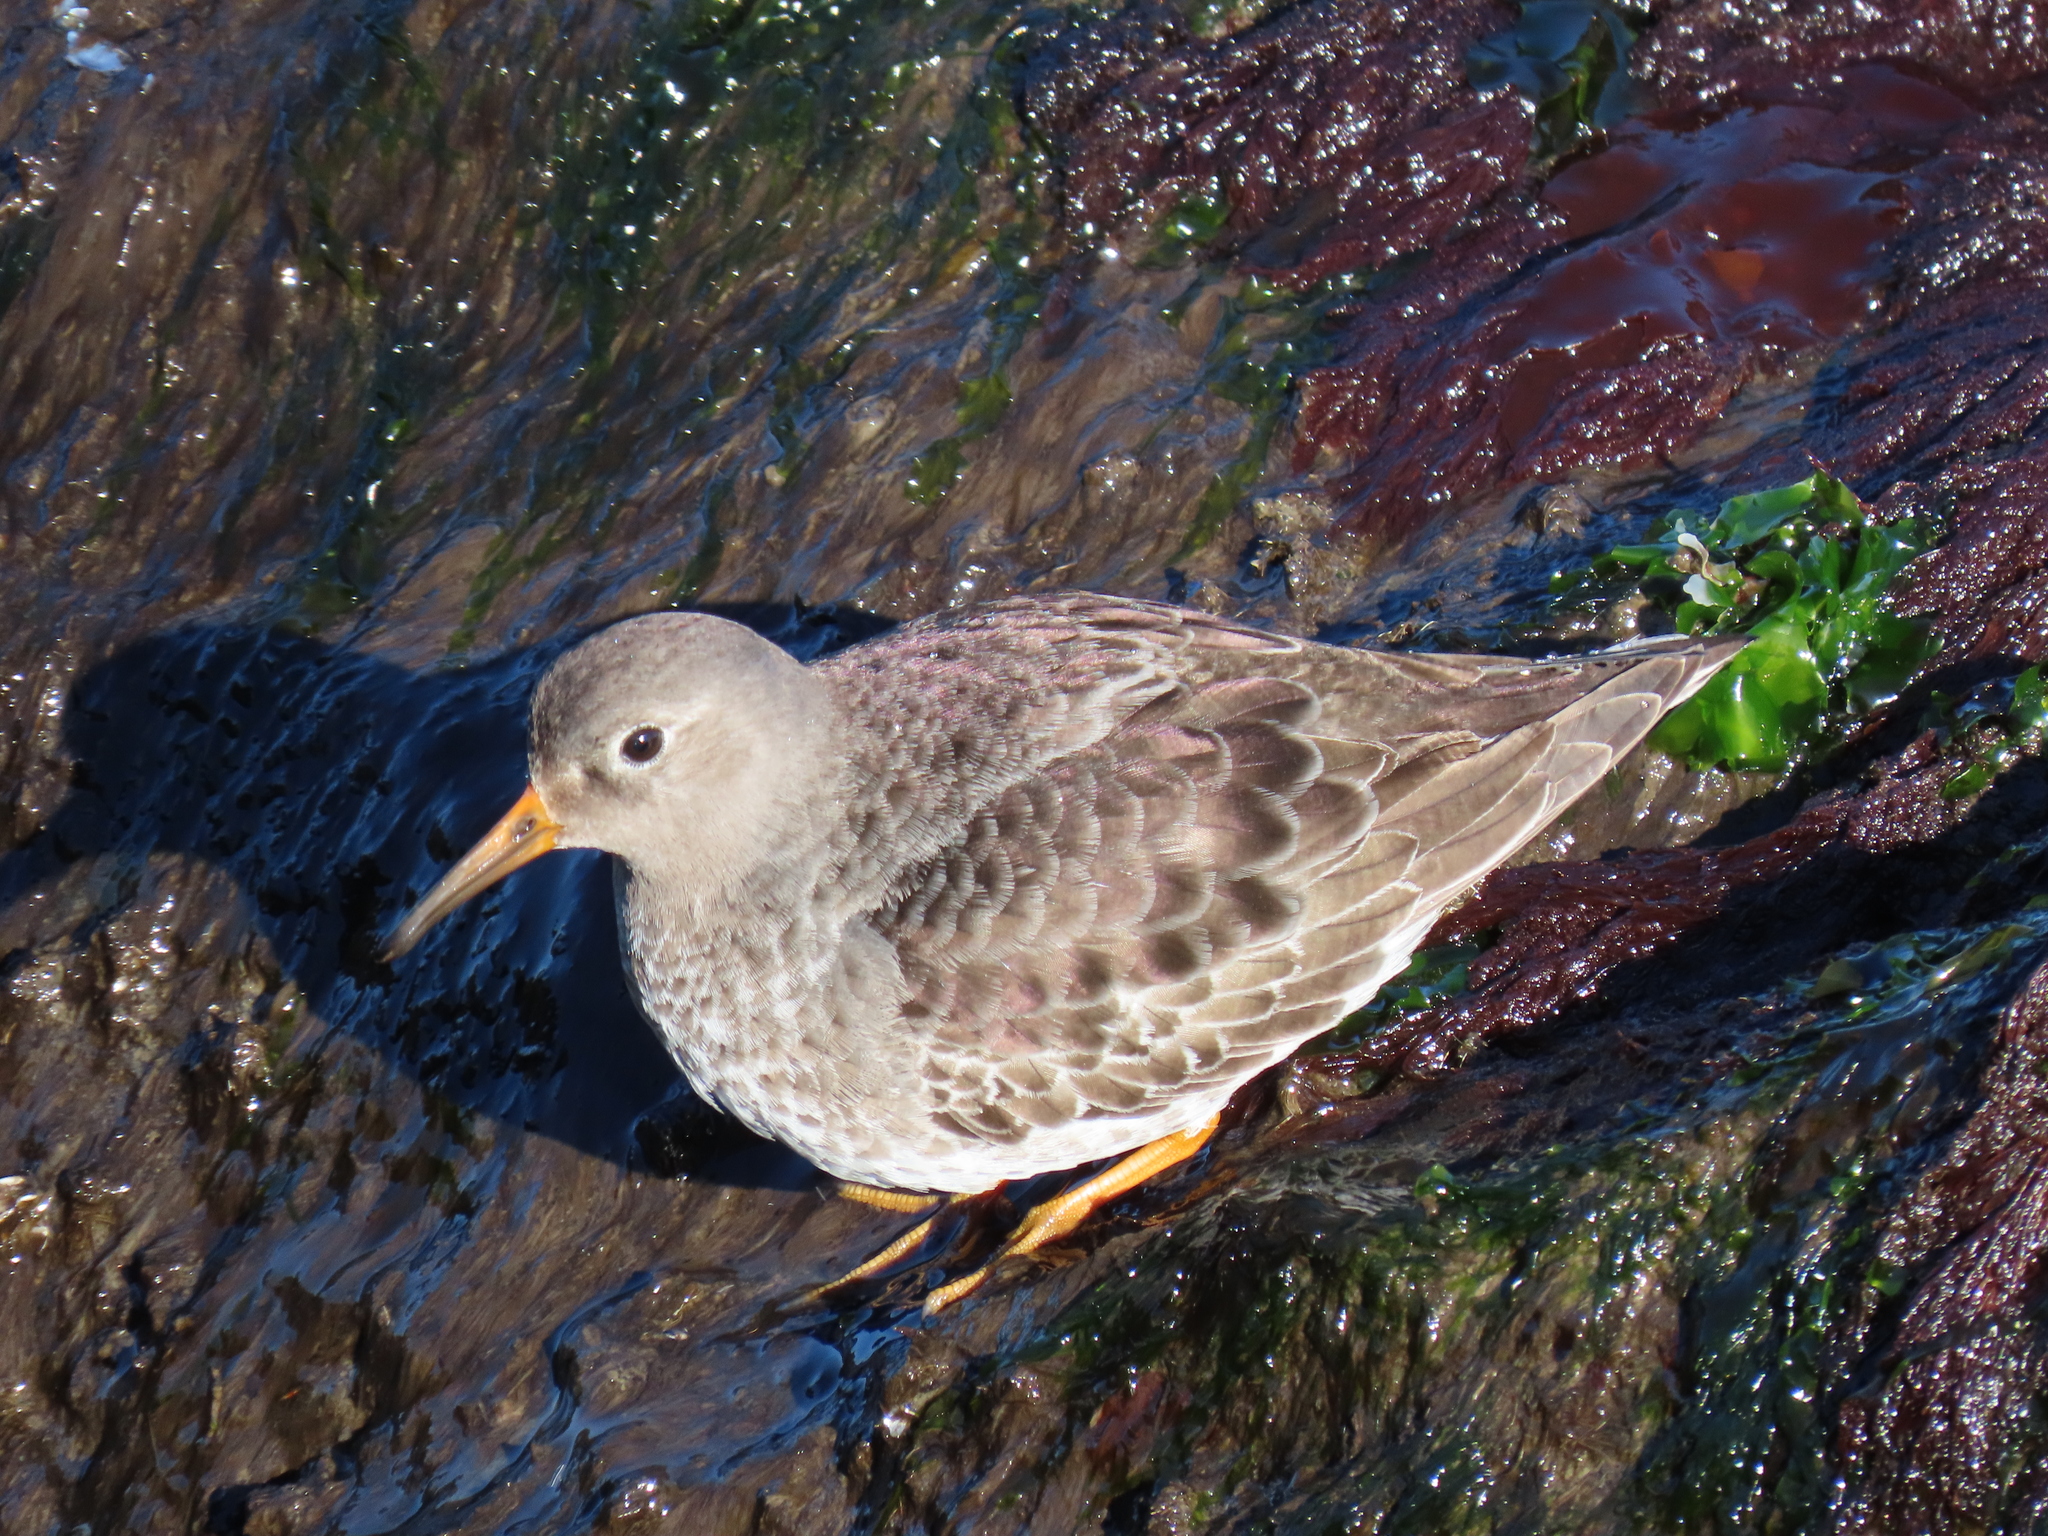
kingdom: Animalia
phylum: Chordata
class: Aves
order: Charadriiformes
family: Scolopacidae
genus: Calidris
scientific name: Calidris maritima
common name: Purple sandpiper
